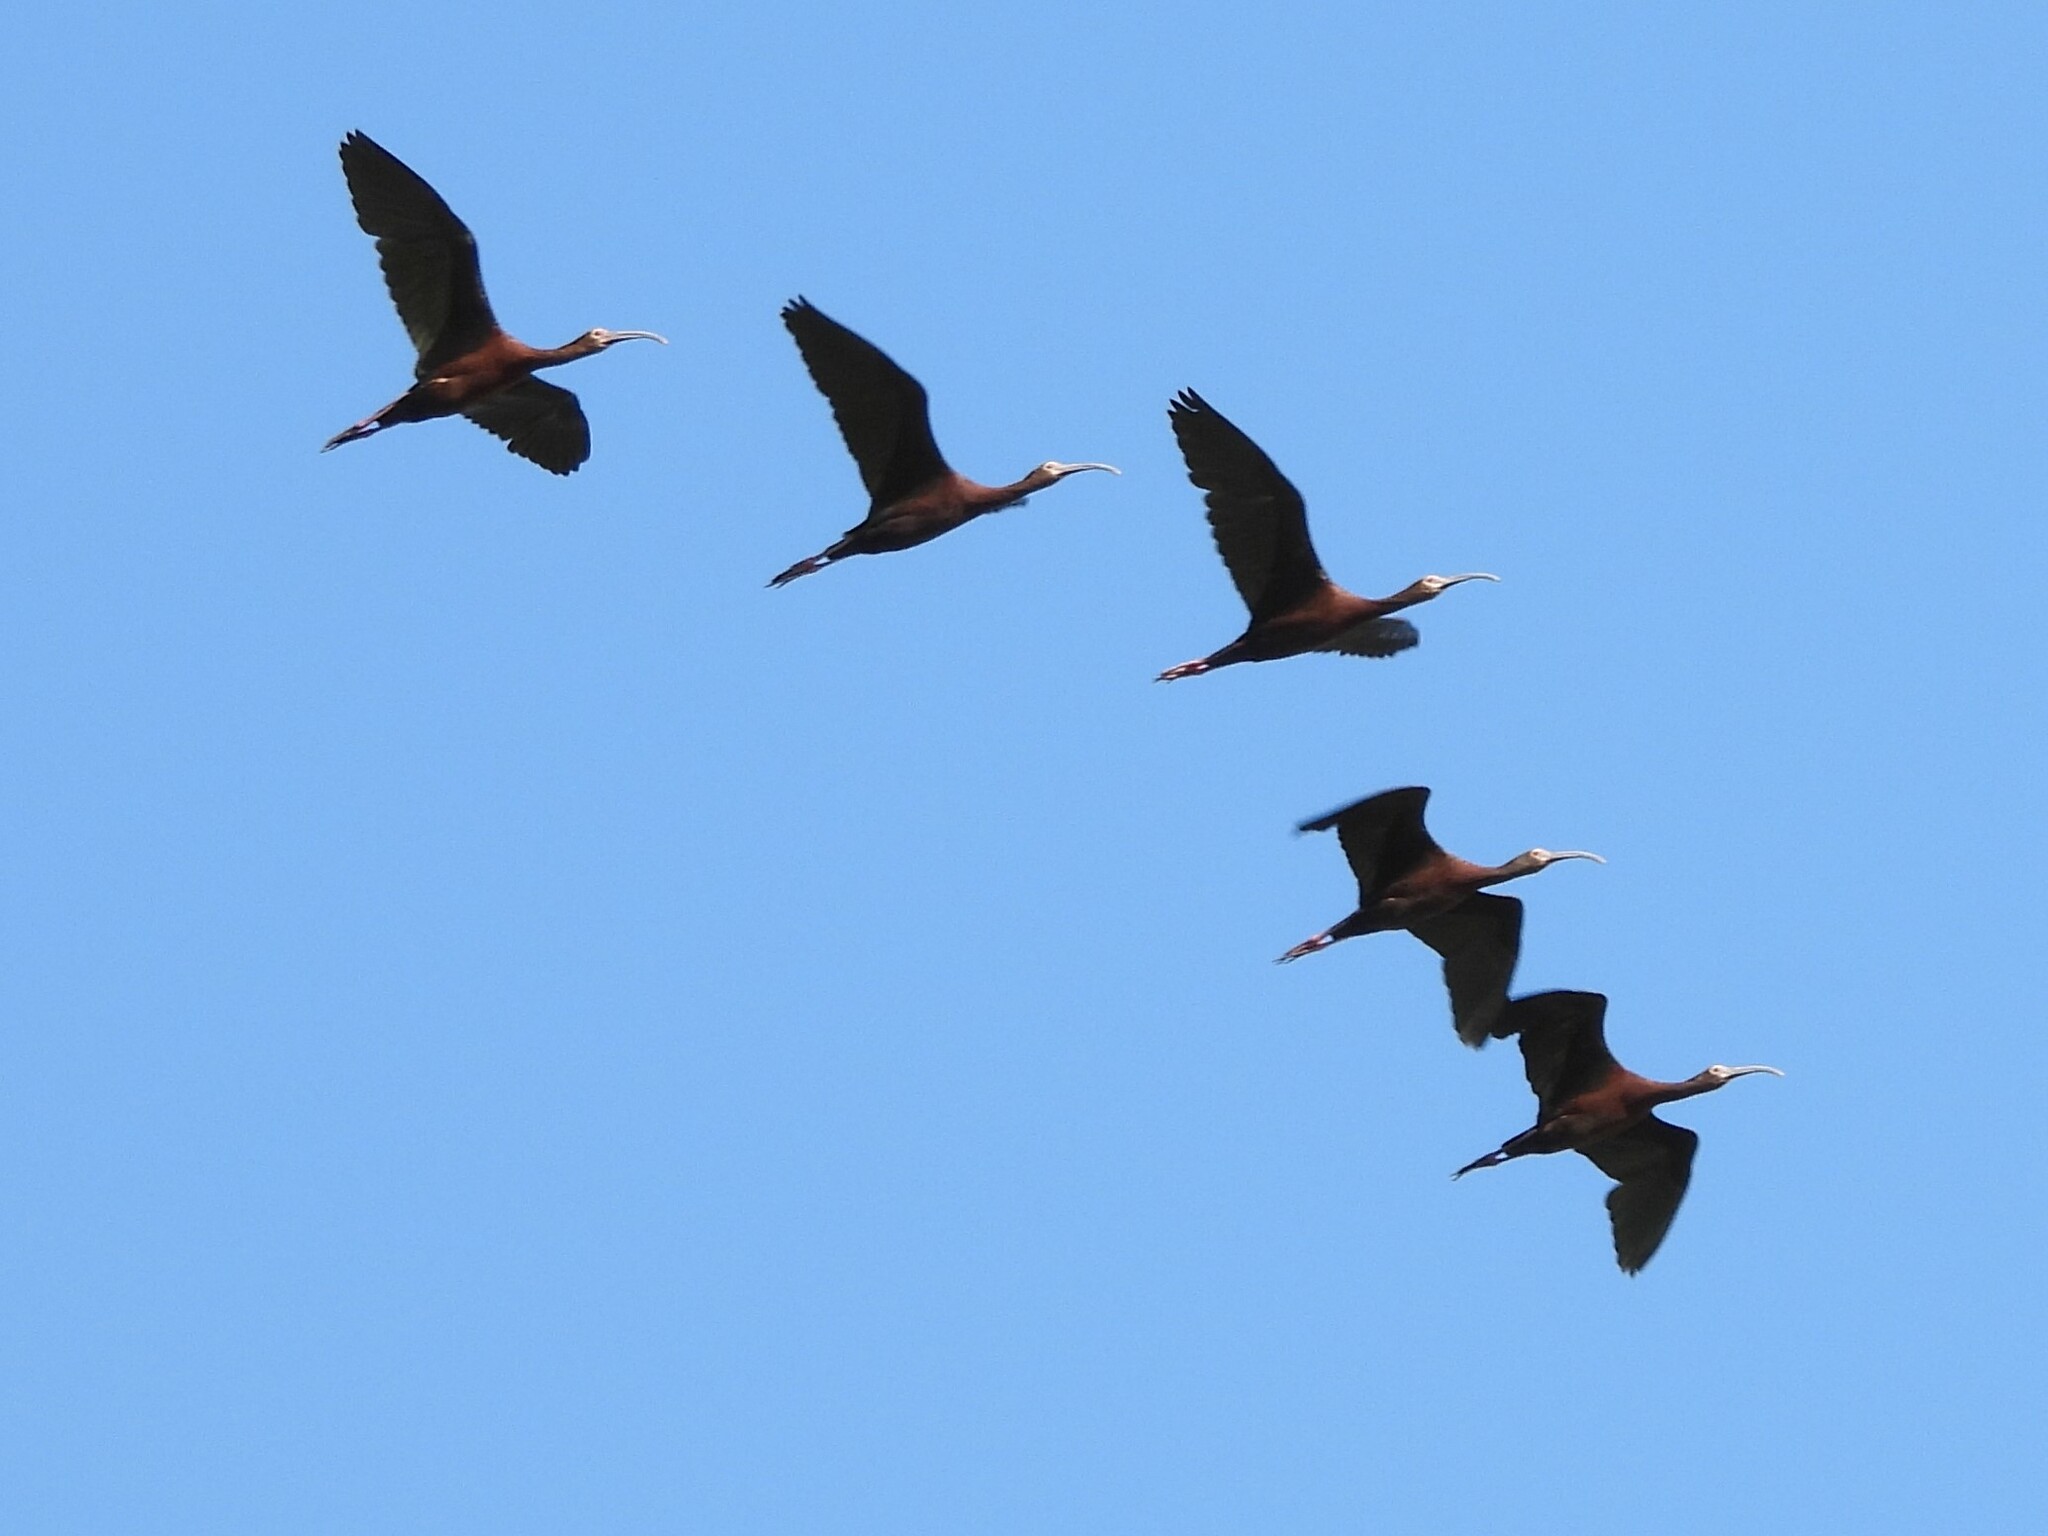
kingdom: Animalia
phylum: Chordata
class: Aves
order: Pelecaniformes
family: Threskiornithidae
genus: Plegadis
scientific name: Plegadis chihi
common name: White-faced ibis
